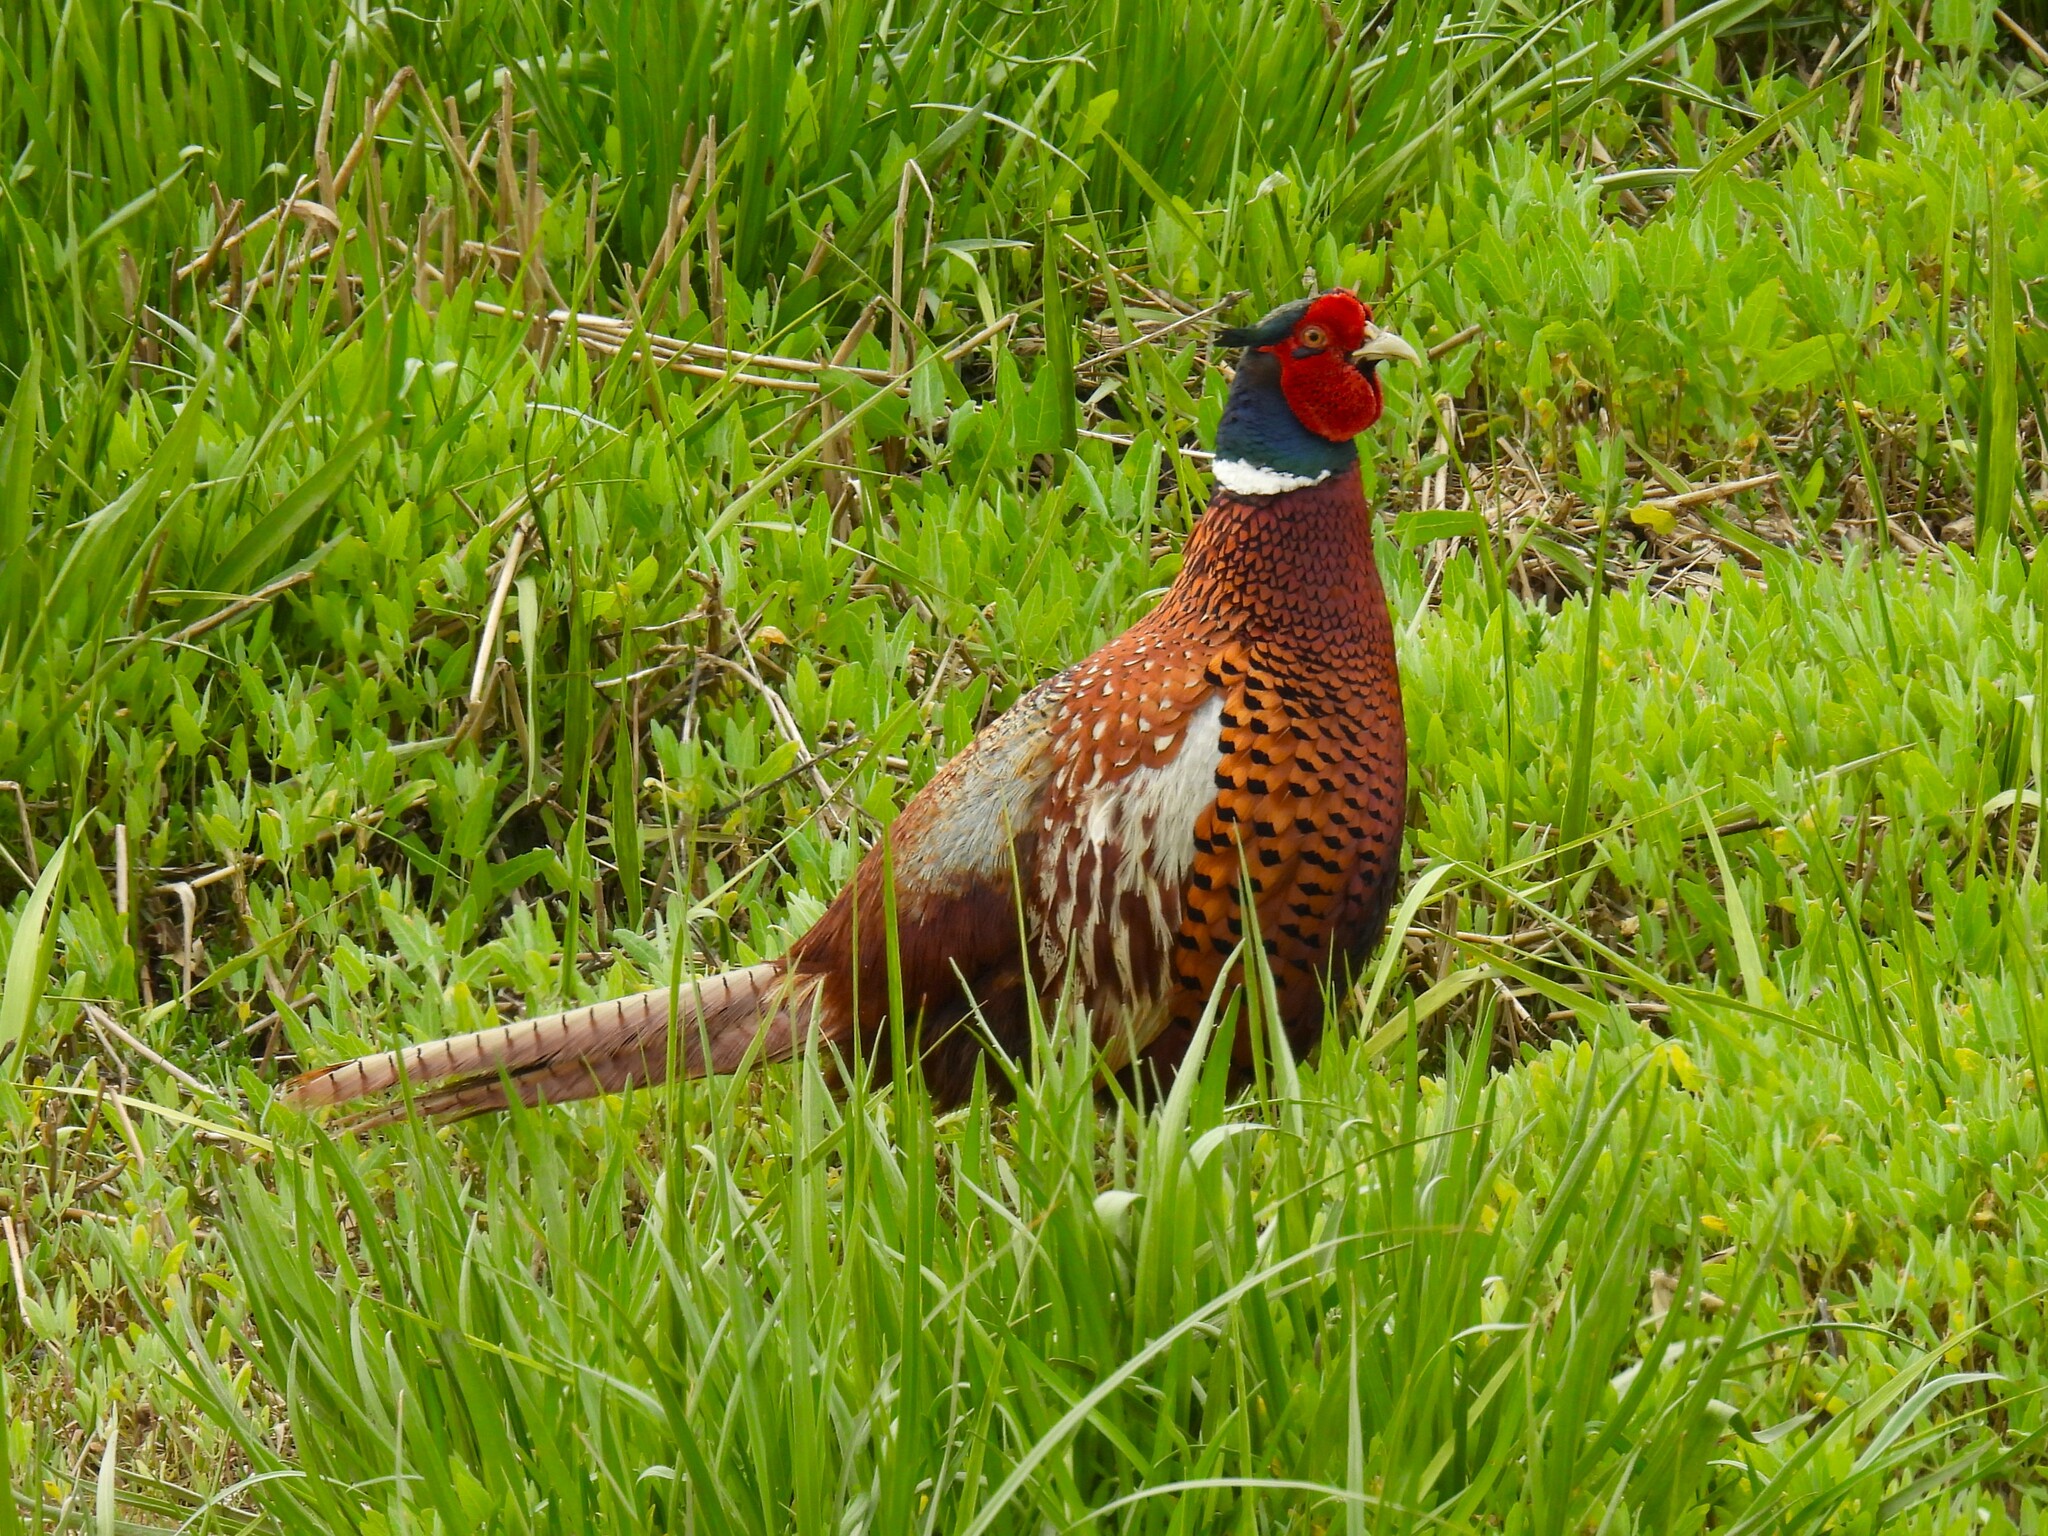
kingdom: Animalia
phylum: Chordata
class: Aves
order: Galliformes
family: Phasianidae
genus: Phasianus
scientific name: Phasianus colchicus
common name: Common pheasant
